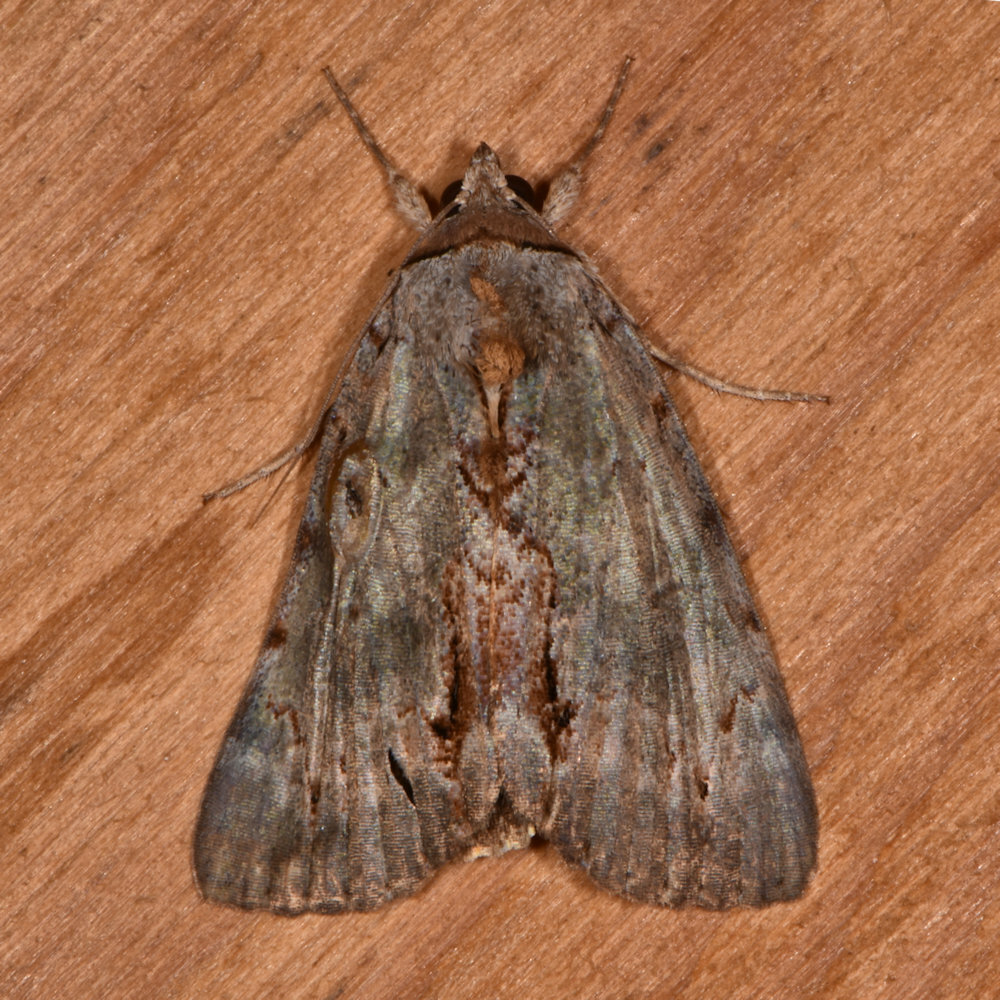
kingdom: Animalia
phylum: Arthropoda
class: Insecta
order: Lepidoptera
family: Erebidae
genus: Catocala
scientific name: Catocala grynea
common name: Woody underwing
